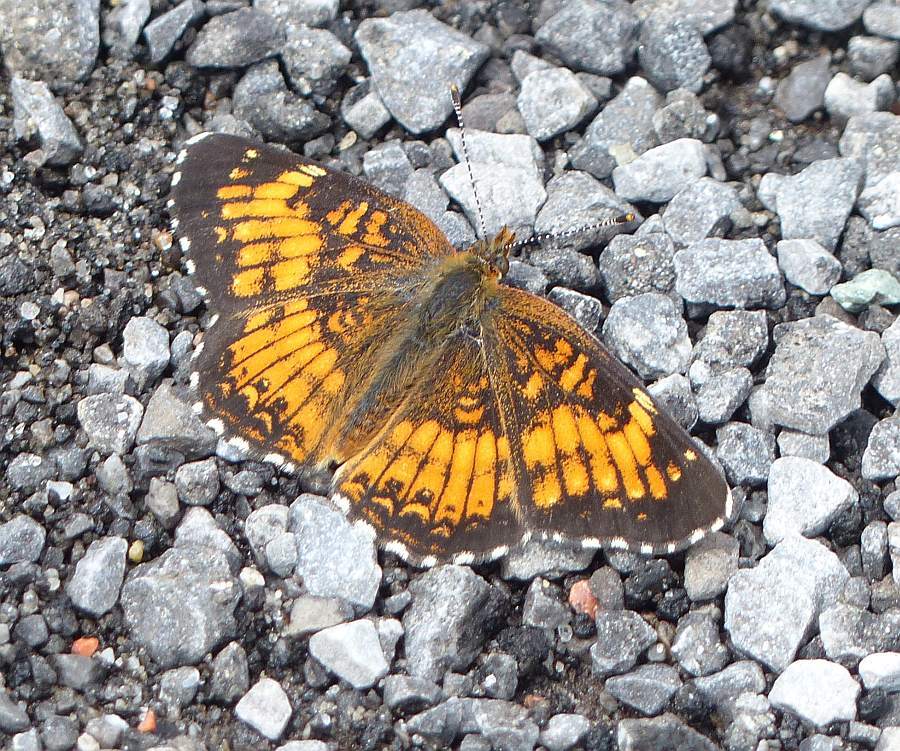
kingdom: Animalia
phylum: Arthropoda
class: Insecta
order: Lepidoptera
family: Nymphalidae
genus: Chlosyne
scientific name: Chlosyne harrisii
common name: Harris's checkerspot
